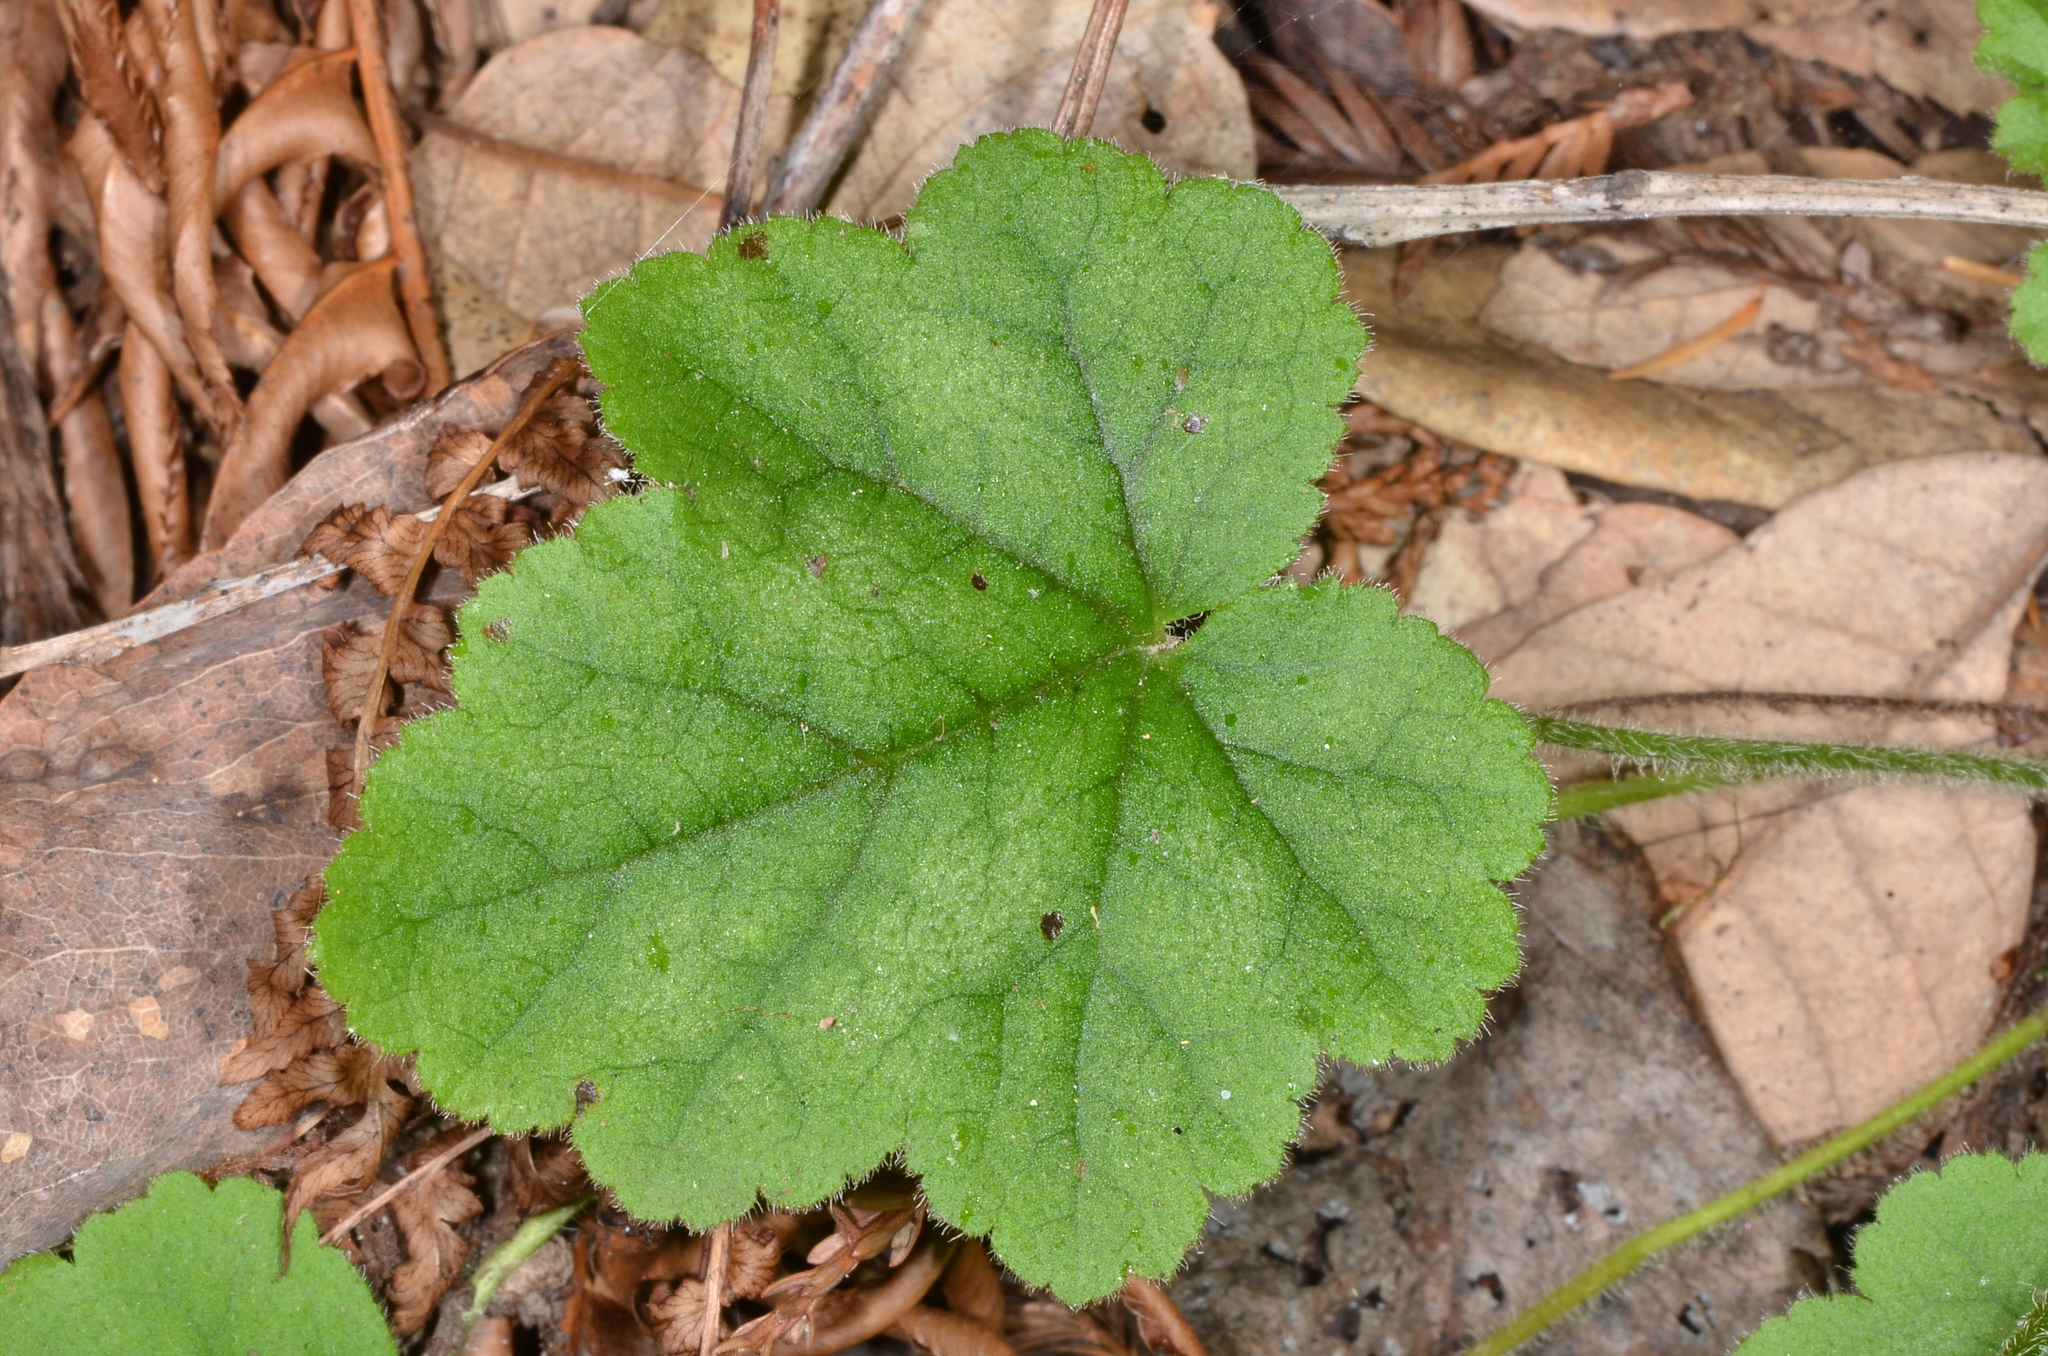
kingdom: Plantae
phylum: Tracheophyta
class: Magnoliopsida
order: Saxifragales
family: Saxifragaceae
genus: Heuchera
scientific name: Heuchera micrantha
